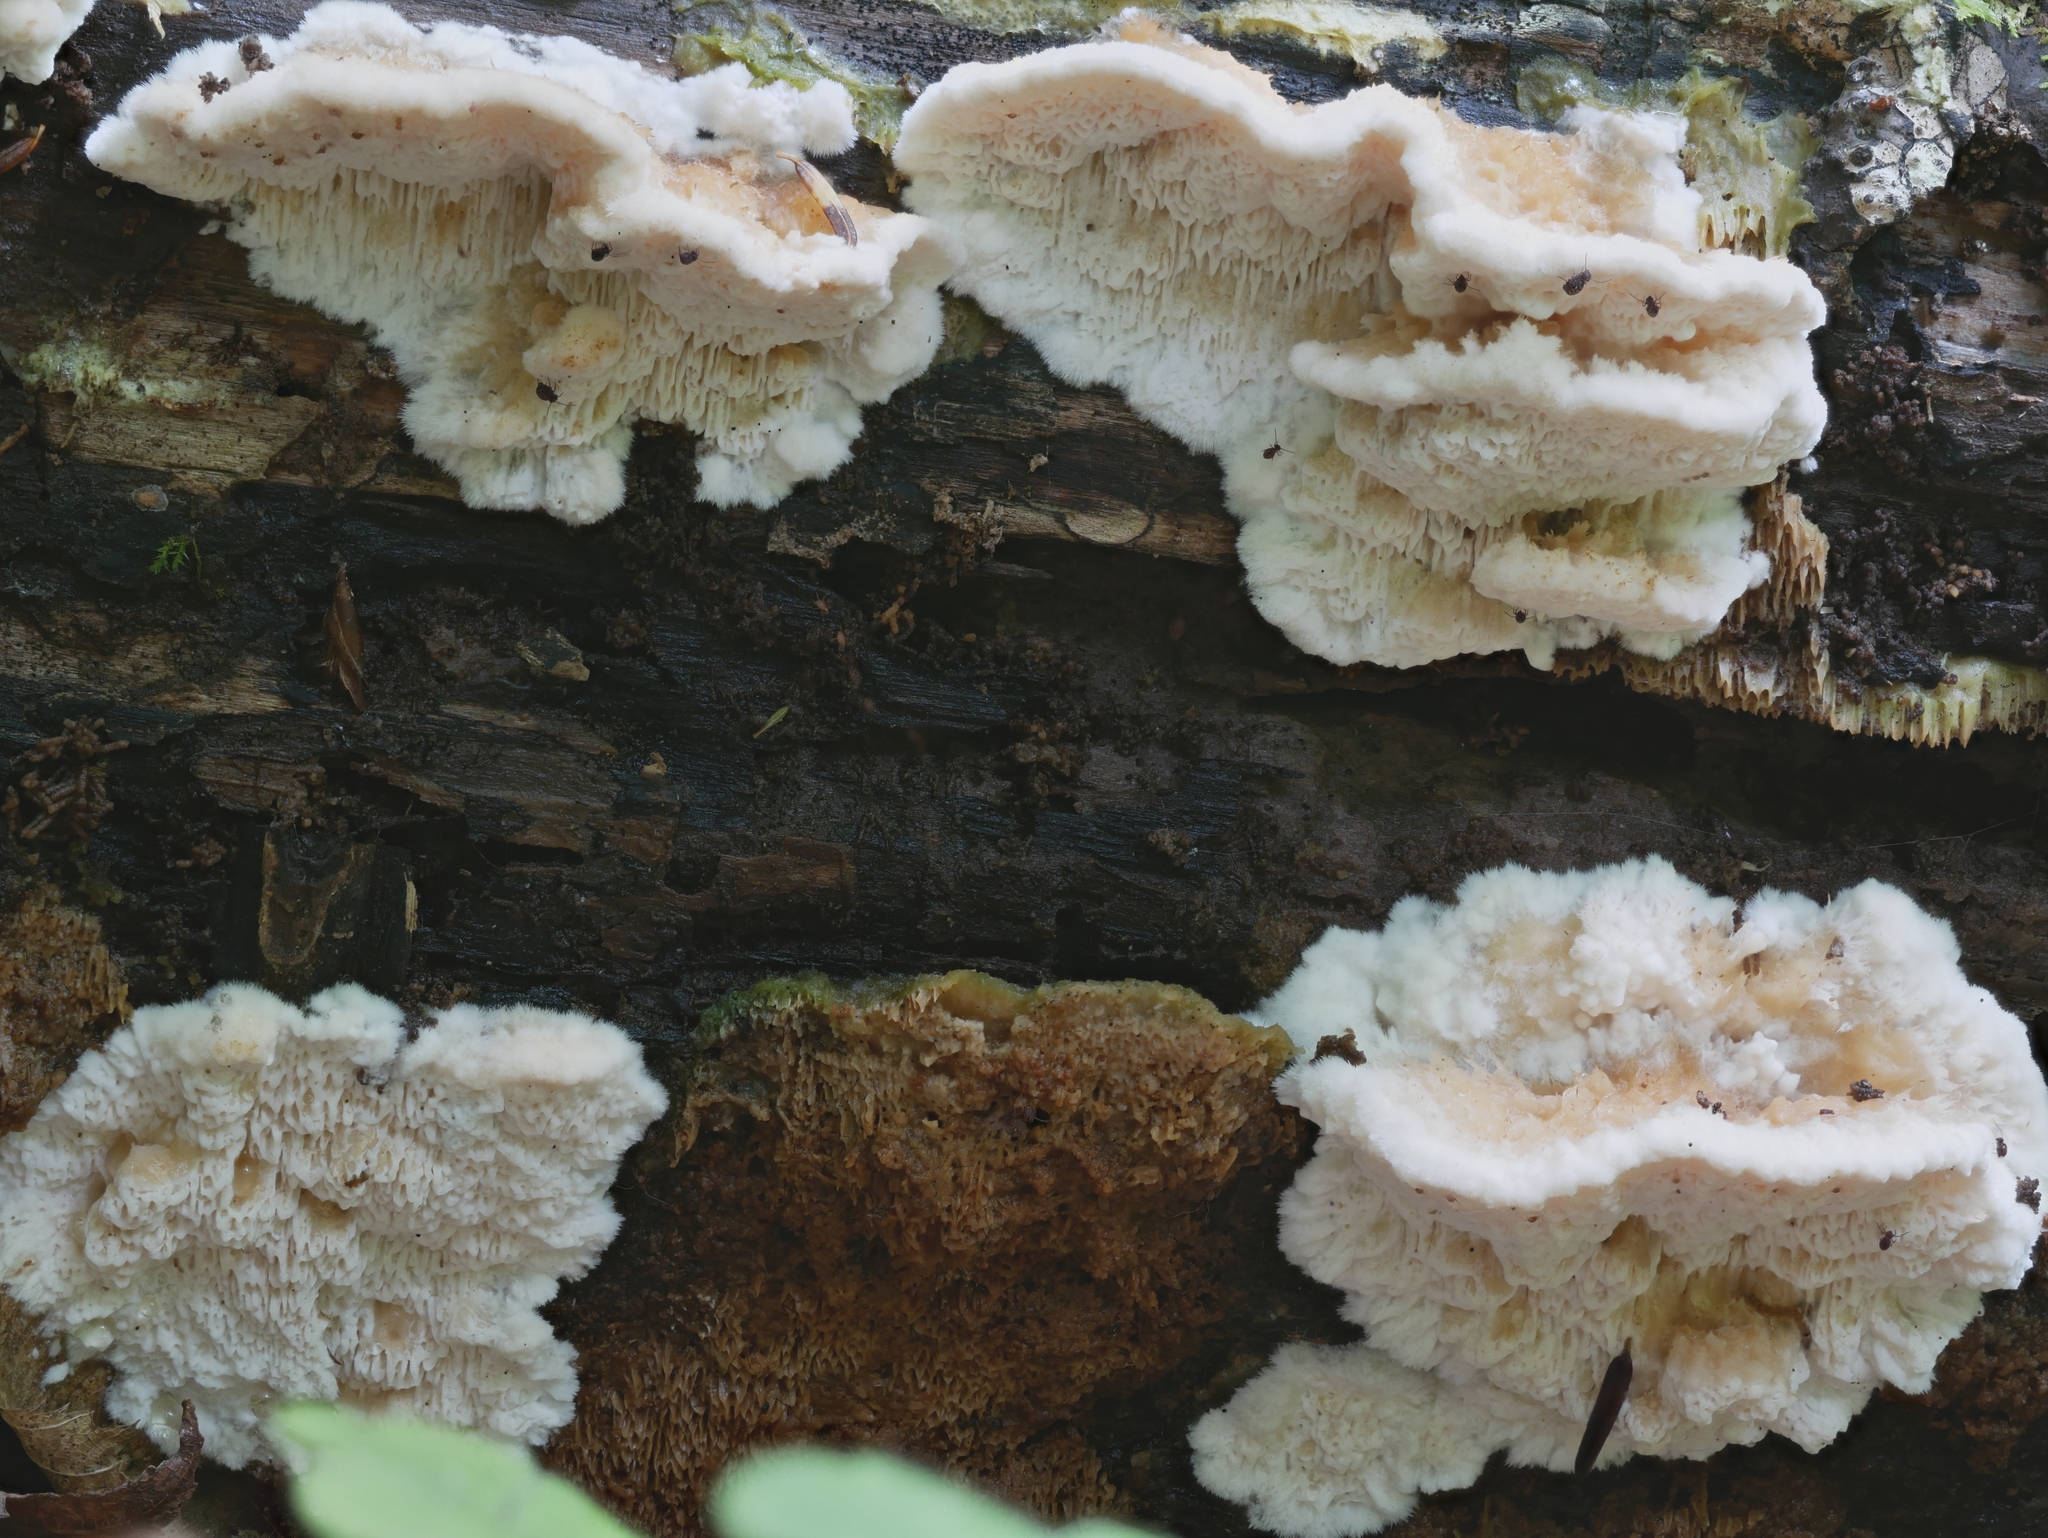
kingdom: Fungi
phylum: Basidiomycota
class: Agaricomycetes
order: Polyporales
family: Irpicaceae
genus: Trametopsis
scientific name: Trametopsis cervina
